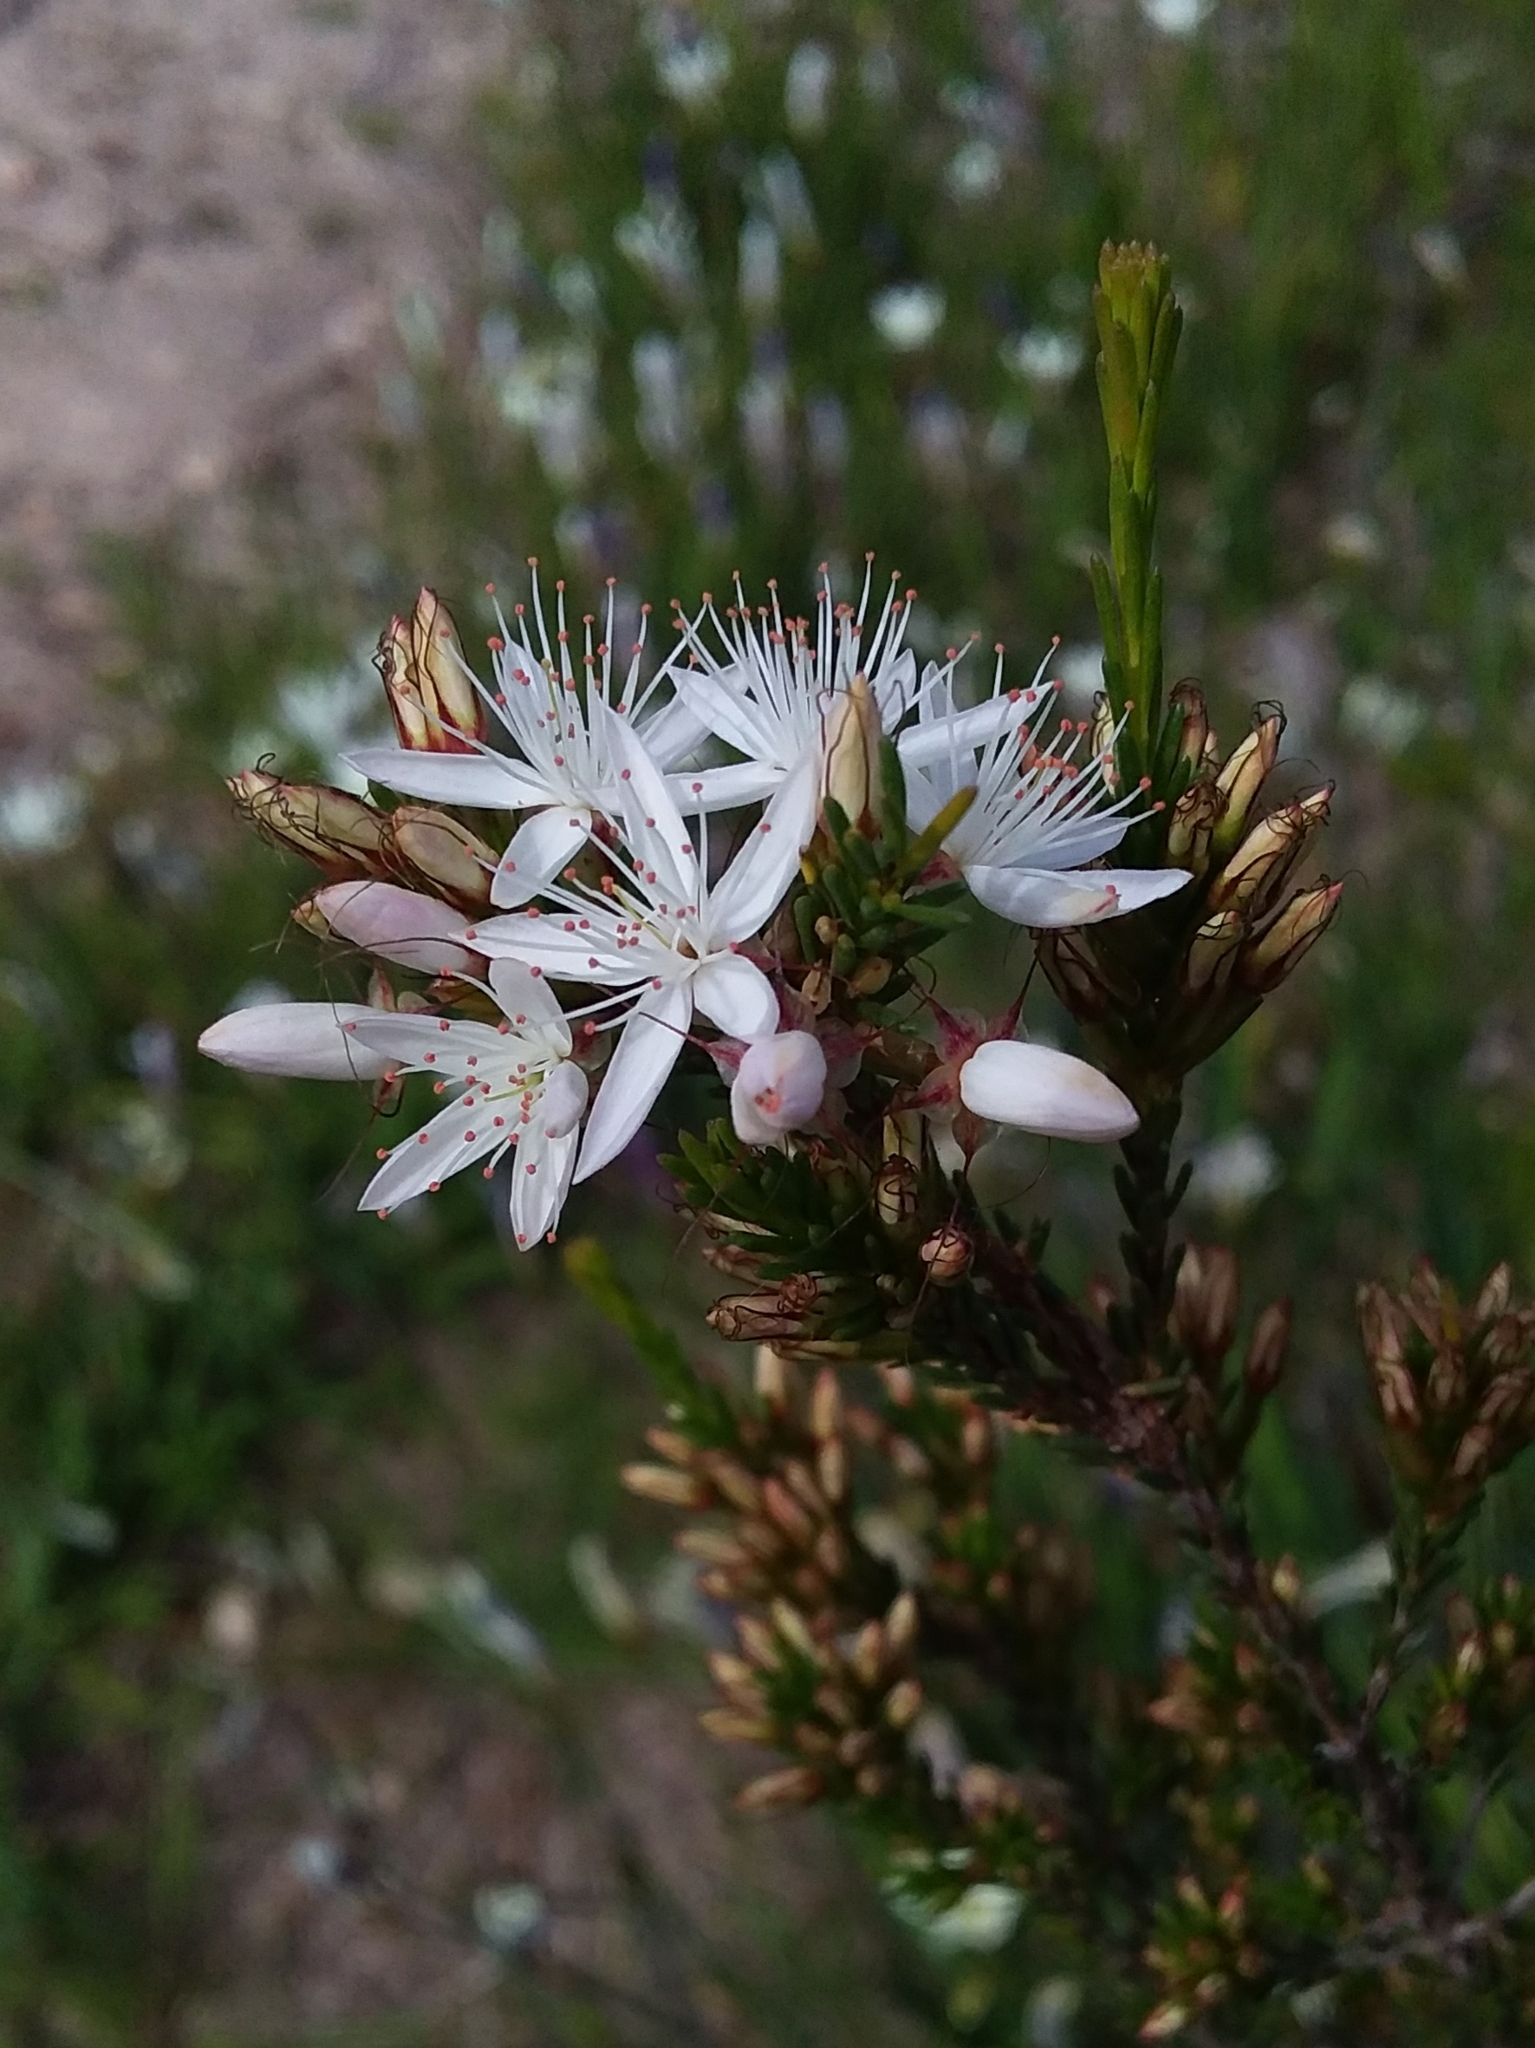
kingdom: Plantae
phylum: Tracheophyta
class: Magnoliopsida
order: Myrtales
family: Myrtaceae
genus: Calytrix
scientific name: Calytrix tetragona
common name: Common fringe myrtle
